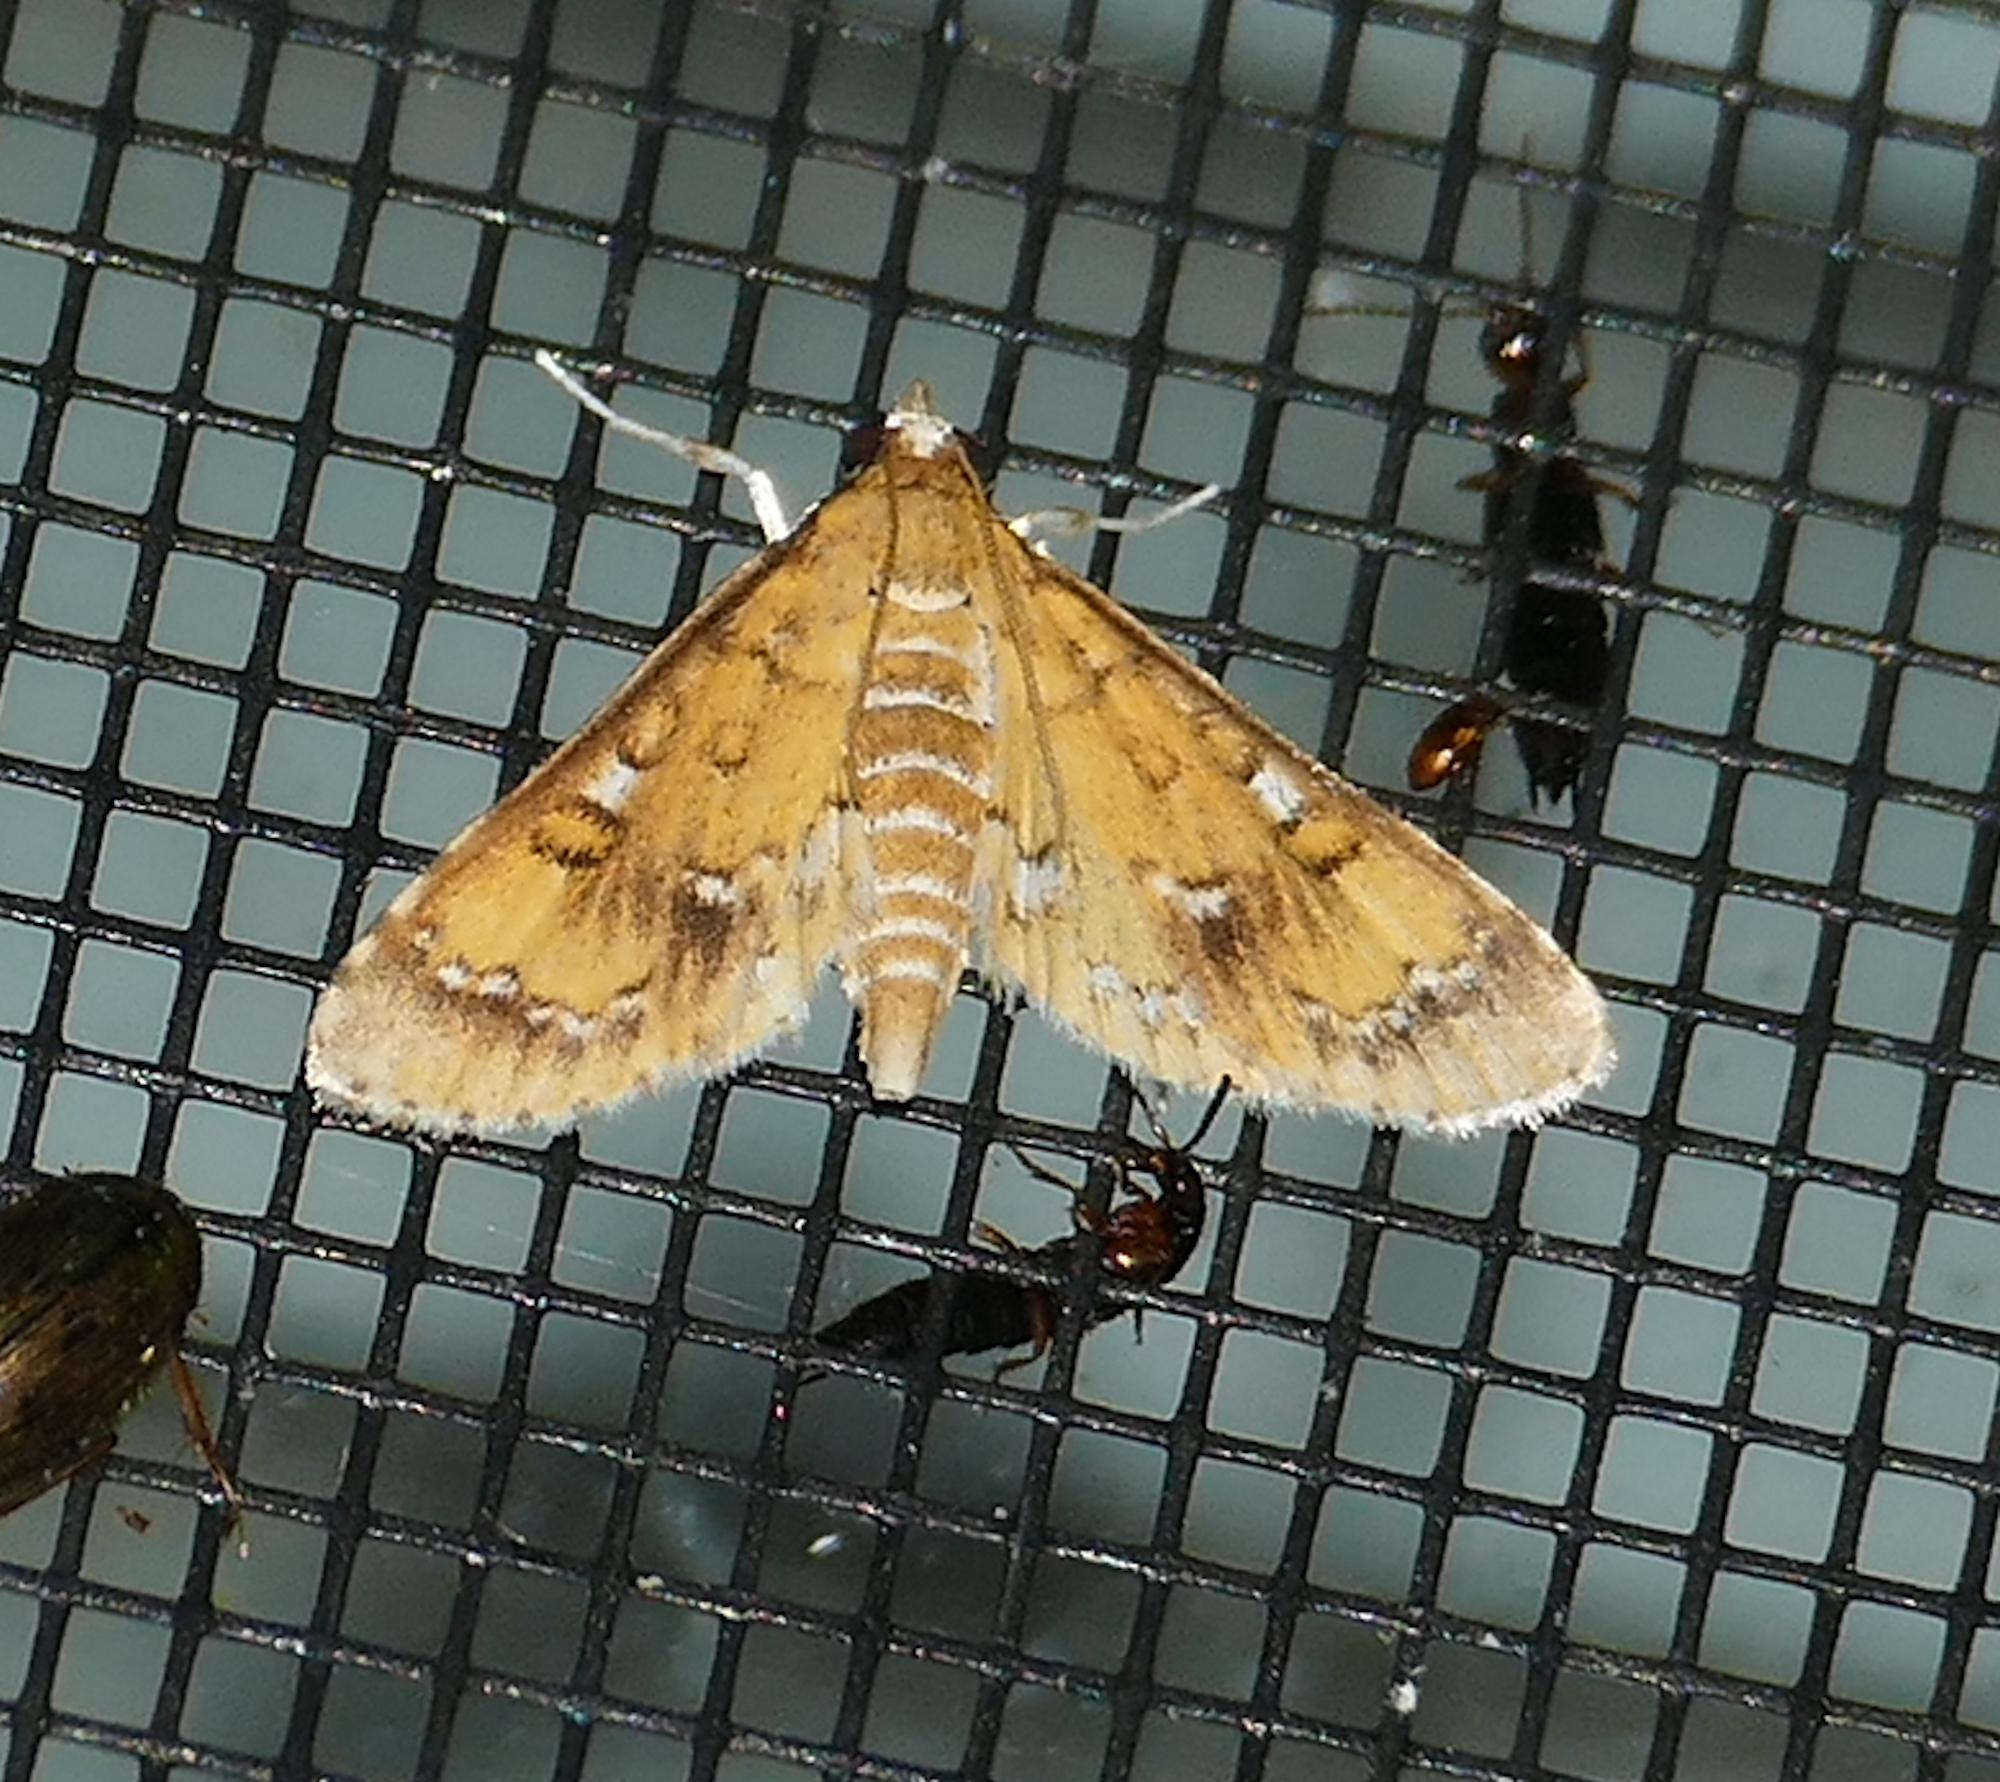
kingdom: Animalia
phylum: Arthropoda
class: Insecta
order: Lepidoptera
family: Crambidae
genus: Niphograpta
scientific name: Niphograpta albiguttalis
